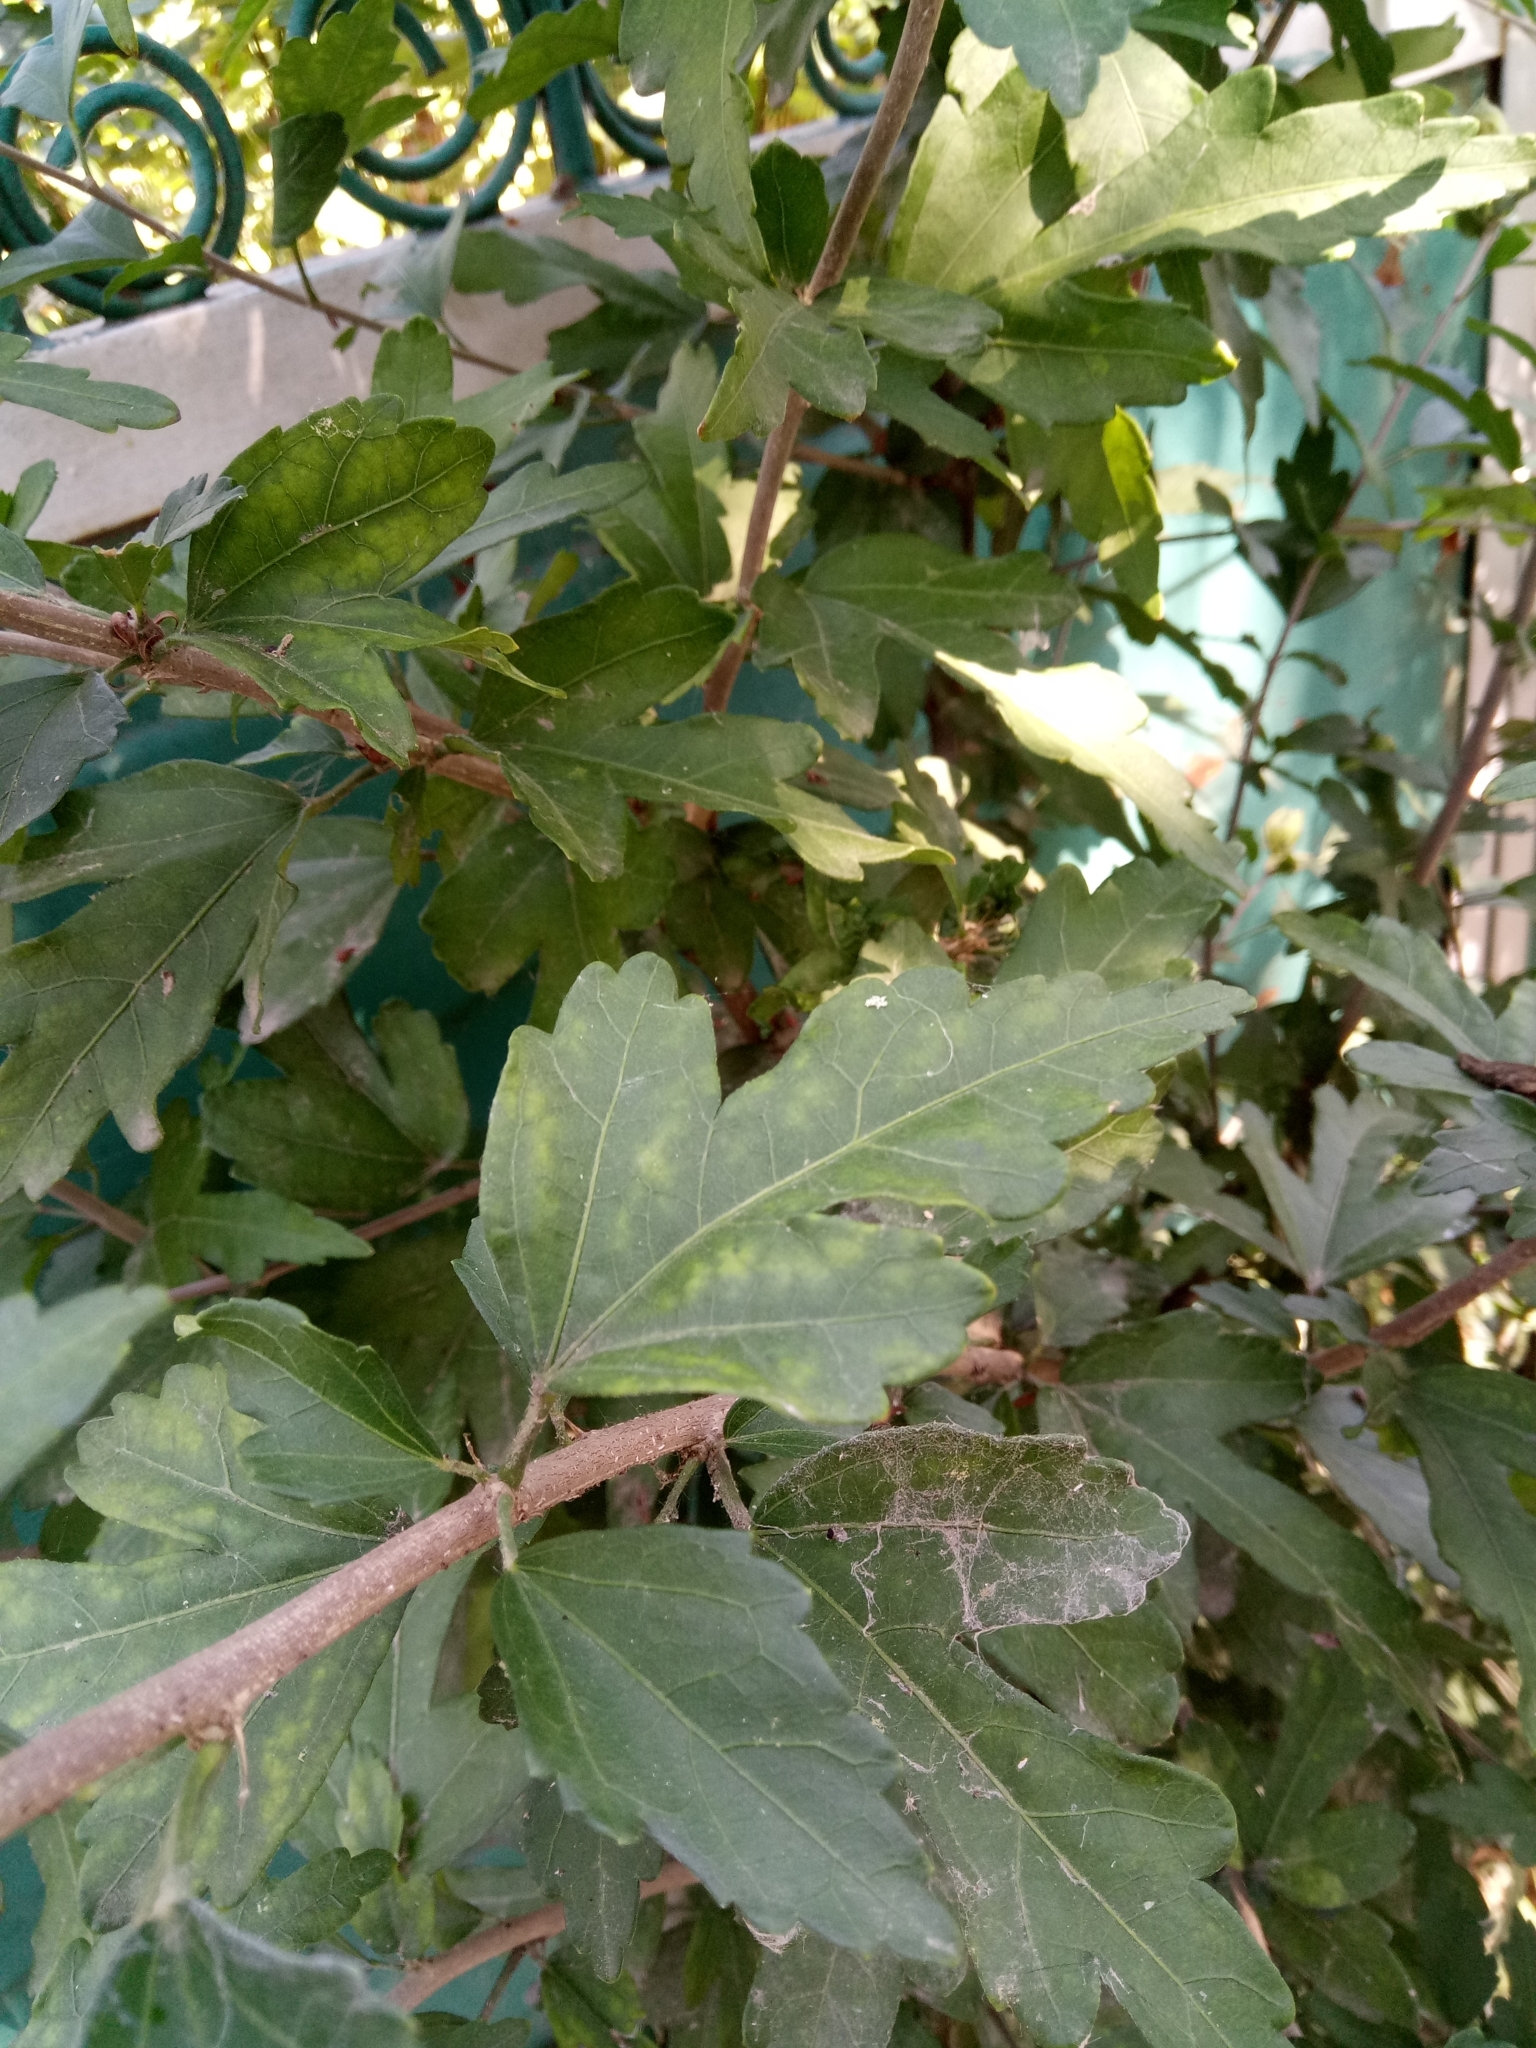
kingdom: Plantae
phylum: Tracheophyta
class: Magnoliopsida
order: Malvales
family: Malvaceae
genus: Hibiscus
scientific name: Hibiscus syriacus
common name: Syrian ketmia
